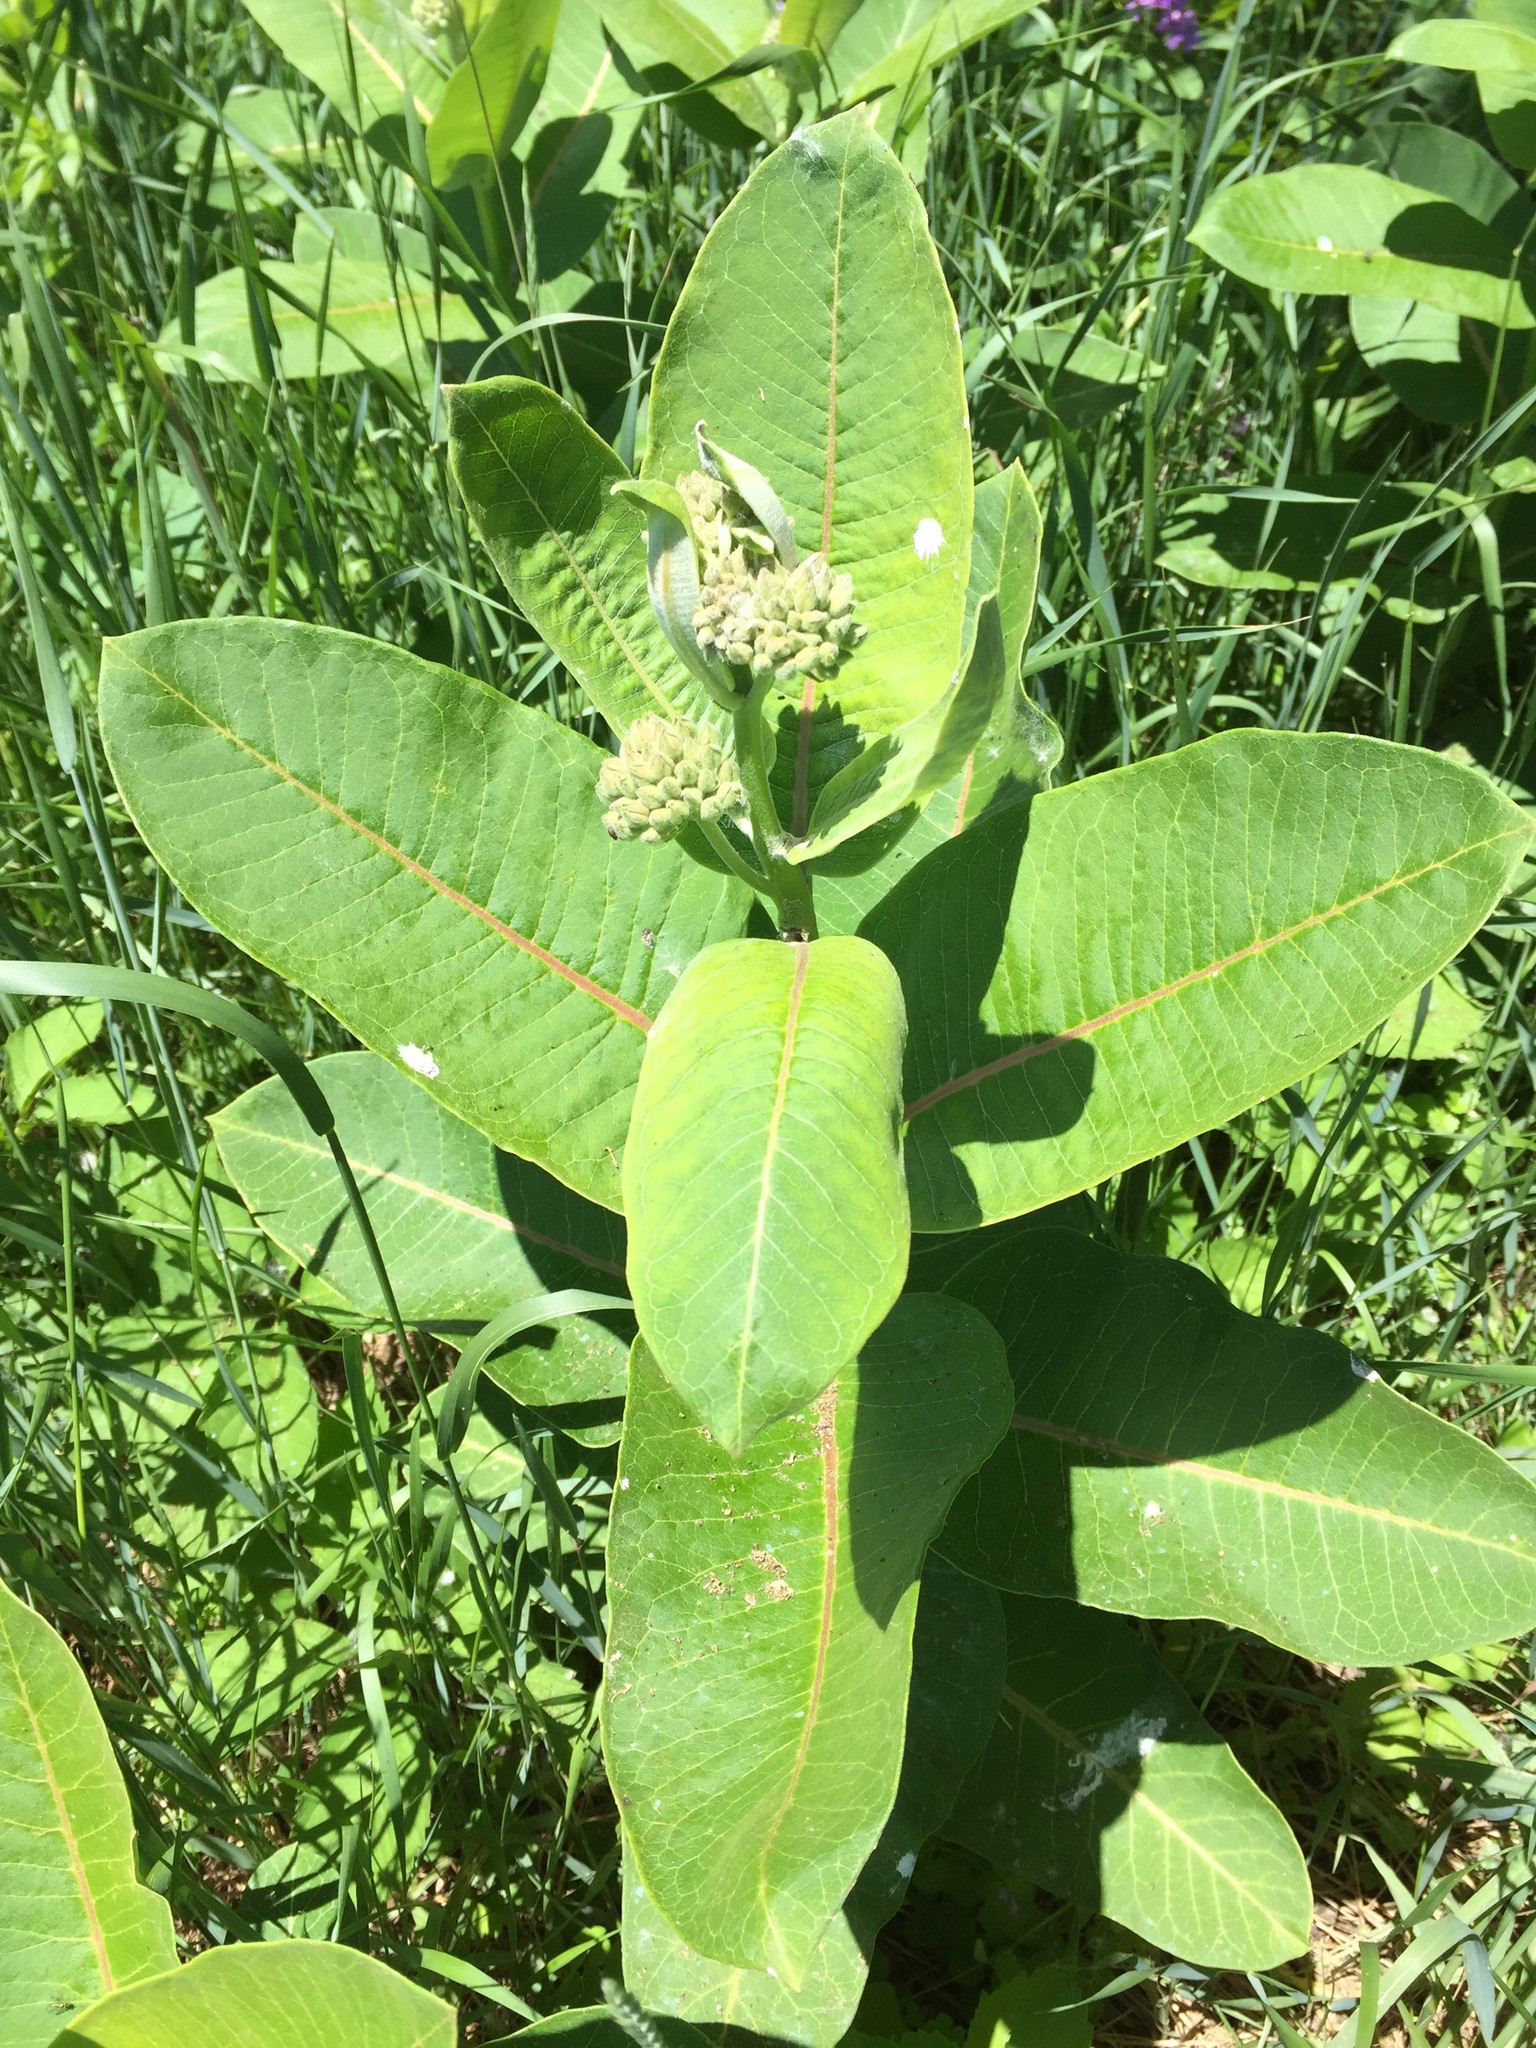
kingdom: Plantae
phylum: Tracheophyta
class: Magnoliopsida
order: Gentianales
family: Apocynaceae
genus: Asclepias
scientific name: Asclepias syriaca
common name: Common milkweed
